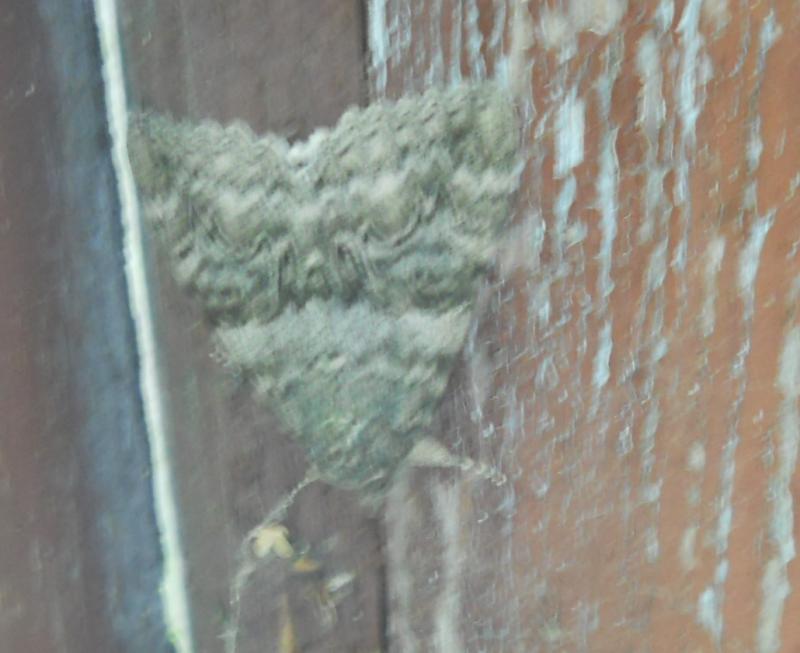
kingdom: Animalia
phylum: Arthropoda
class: Insecta
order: Lepidoptera
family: Erebidae
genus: Catocala
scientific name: Catocala nupta
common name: Red underwing
